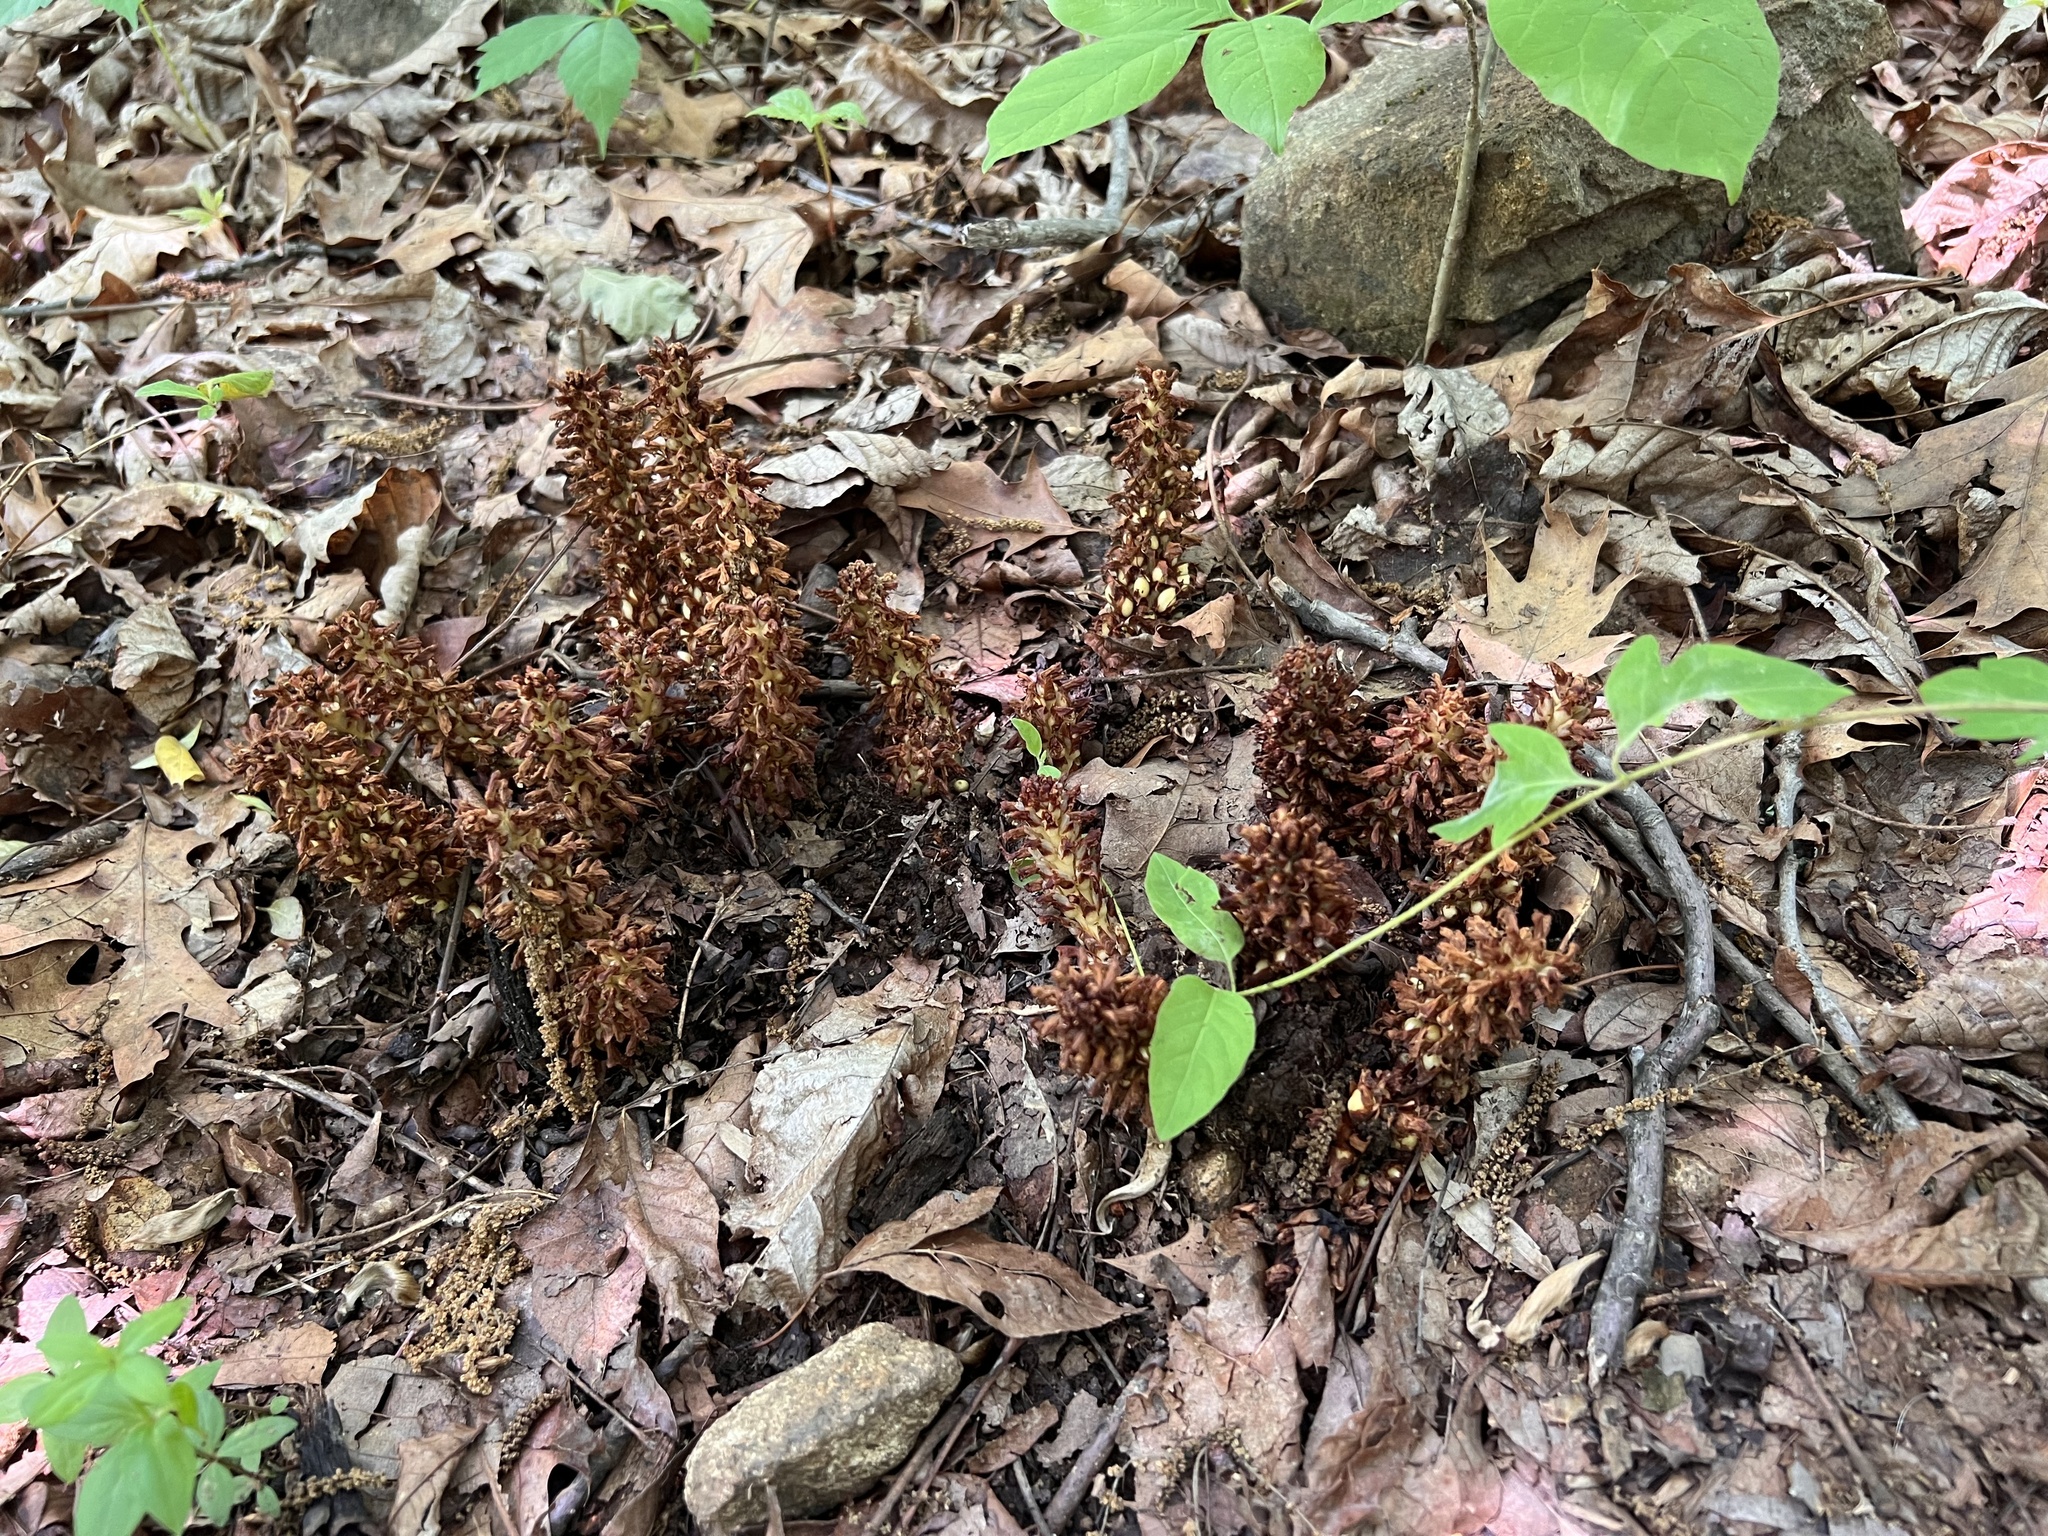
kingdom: Plantae
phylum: Tracheophyta
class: Magnoliopsida
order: Lamiales
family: Orobanchaceae
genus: Conopholis
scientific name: Conopholis americana
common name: American cancer-root
